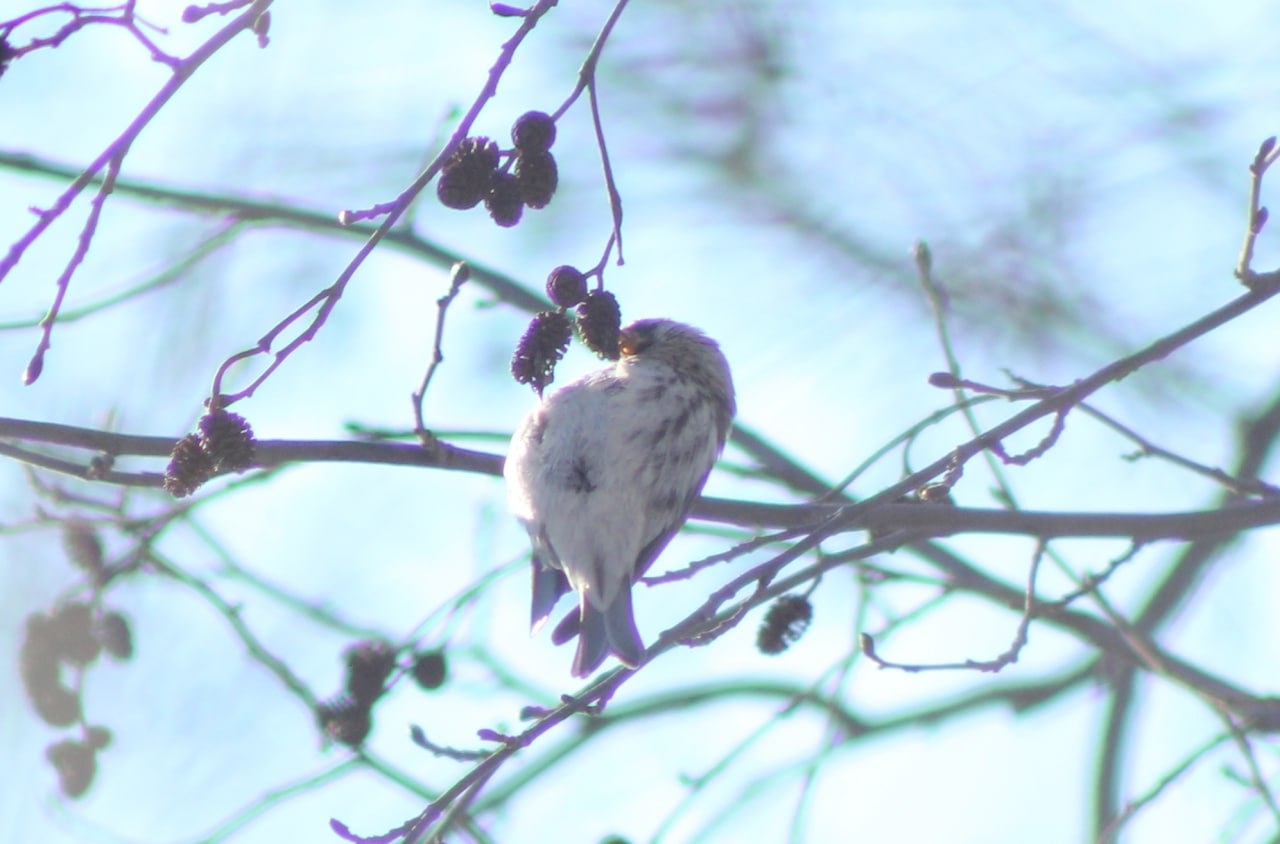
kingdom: Animalia
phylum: Chordata
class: Aves
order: Passeriformes
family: Fringillidae
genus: Acanthis
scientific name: Acanthis flammea
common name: Common redpoll
